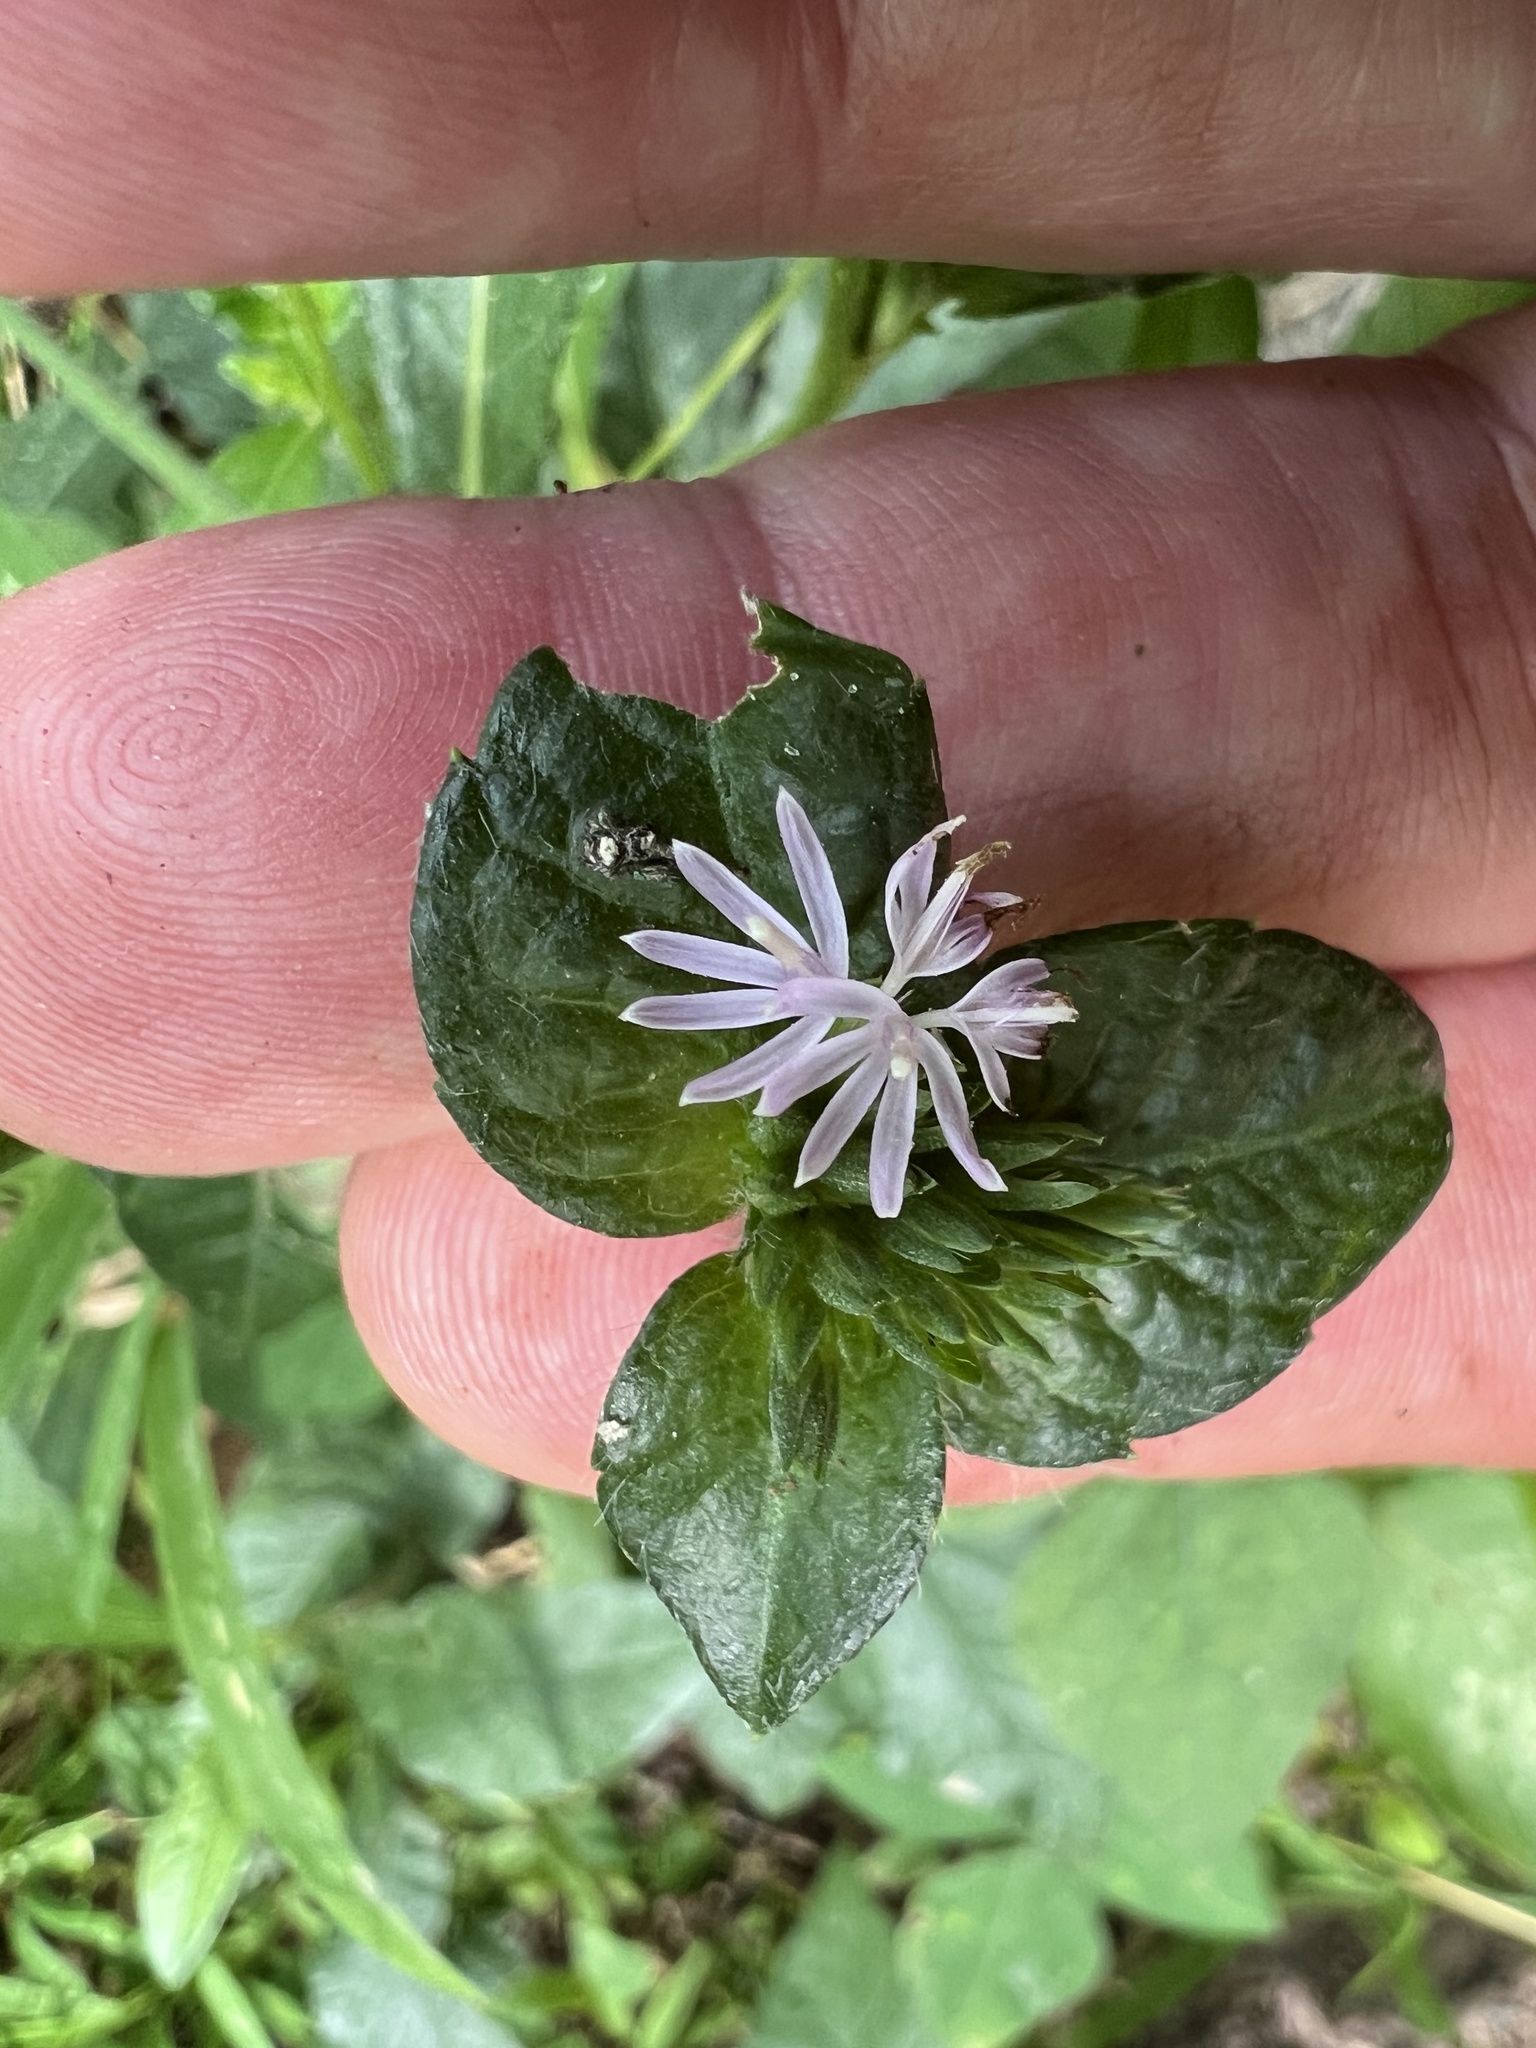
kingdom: Plantae
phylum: Tracheophyta
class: Magnoliopsida
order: Asterales
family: Asteraceae
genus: Elephantopus
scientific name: Elephantopus carolinianus
